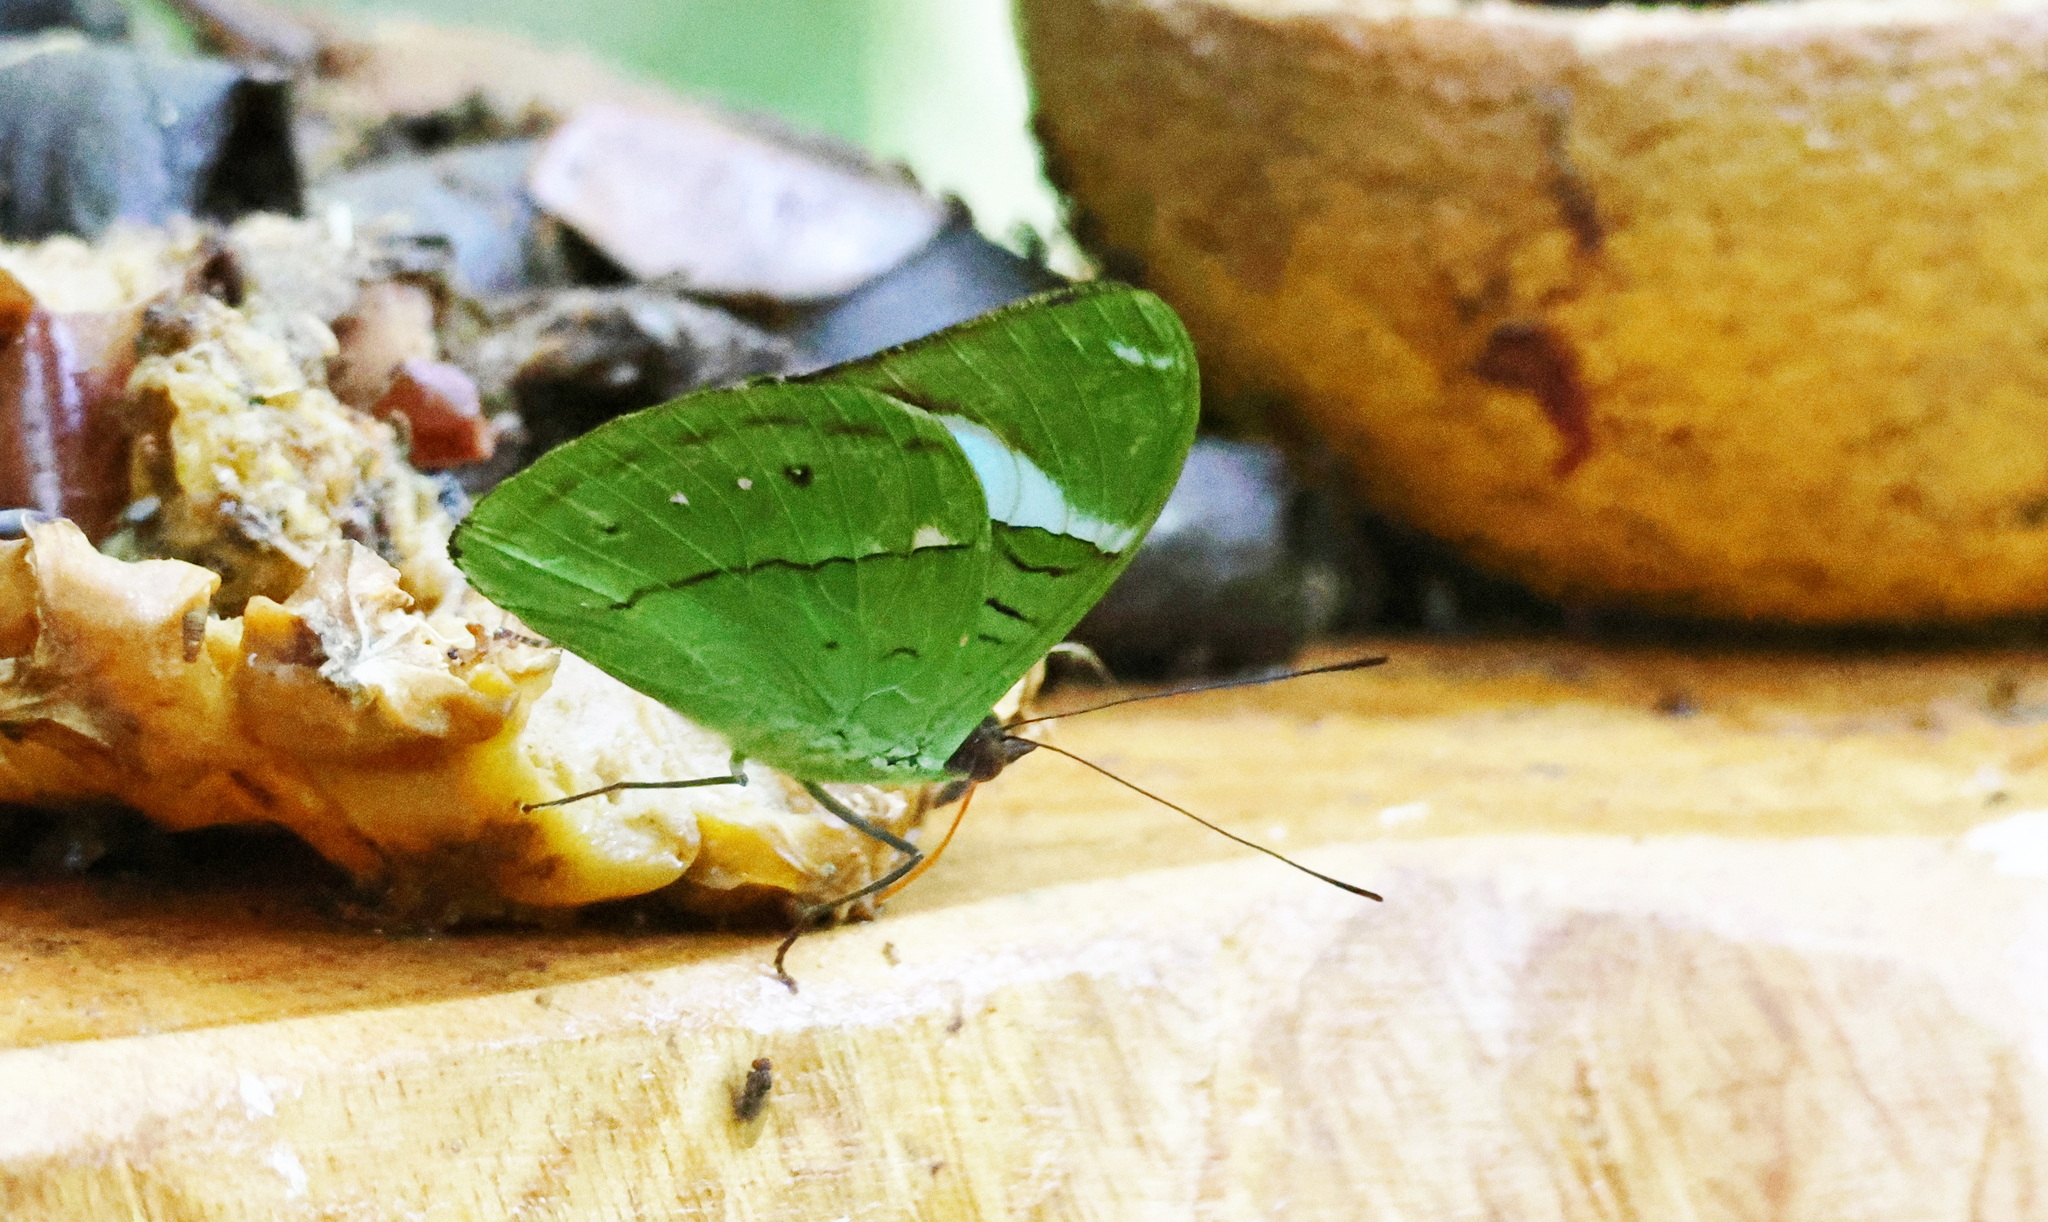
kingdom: Animalia
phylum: Arthropoda
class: Insecta
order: Lepidoptera
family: Nymphalidae
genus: Nessaea
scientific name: Nessaea aglaura
